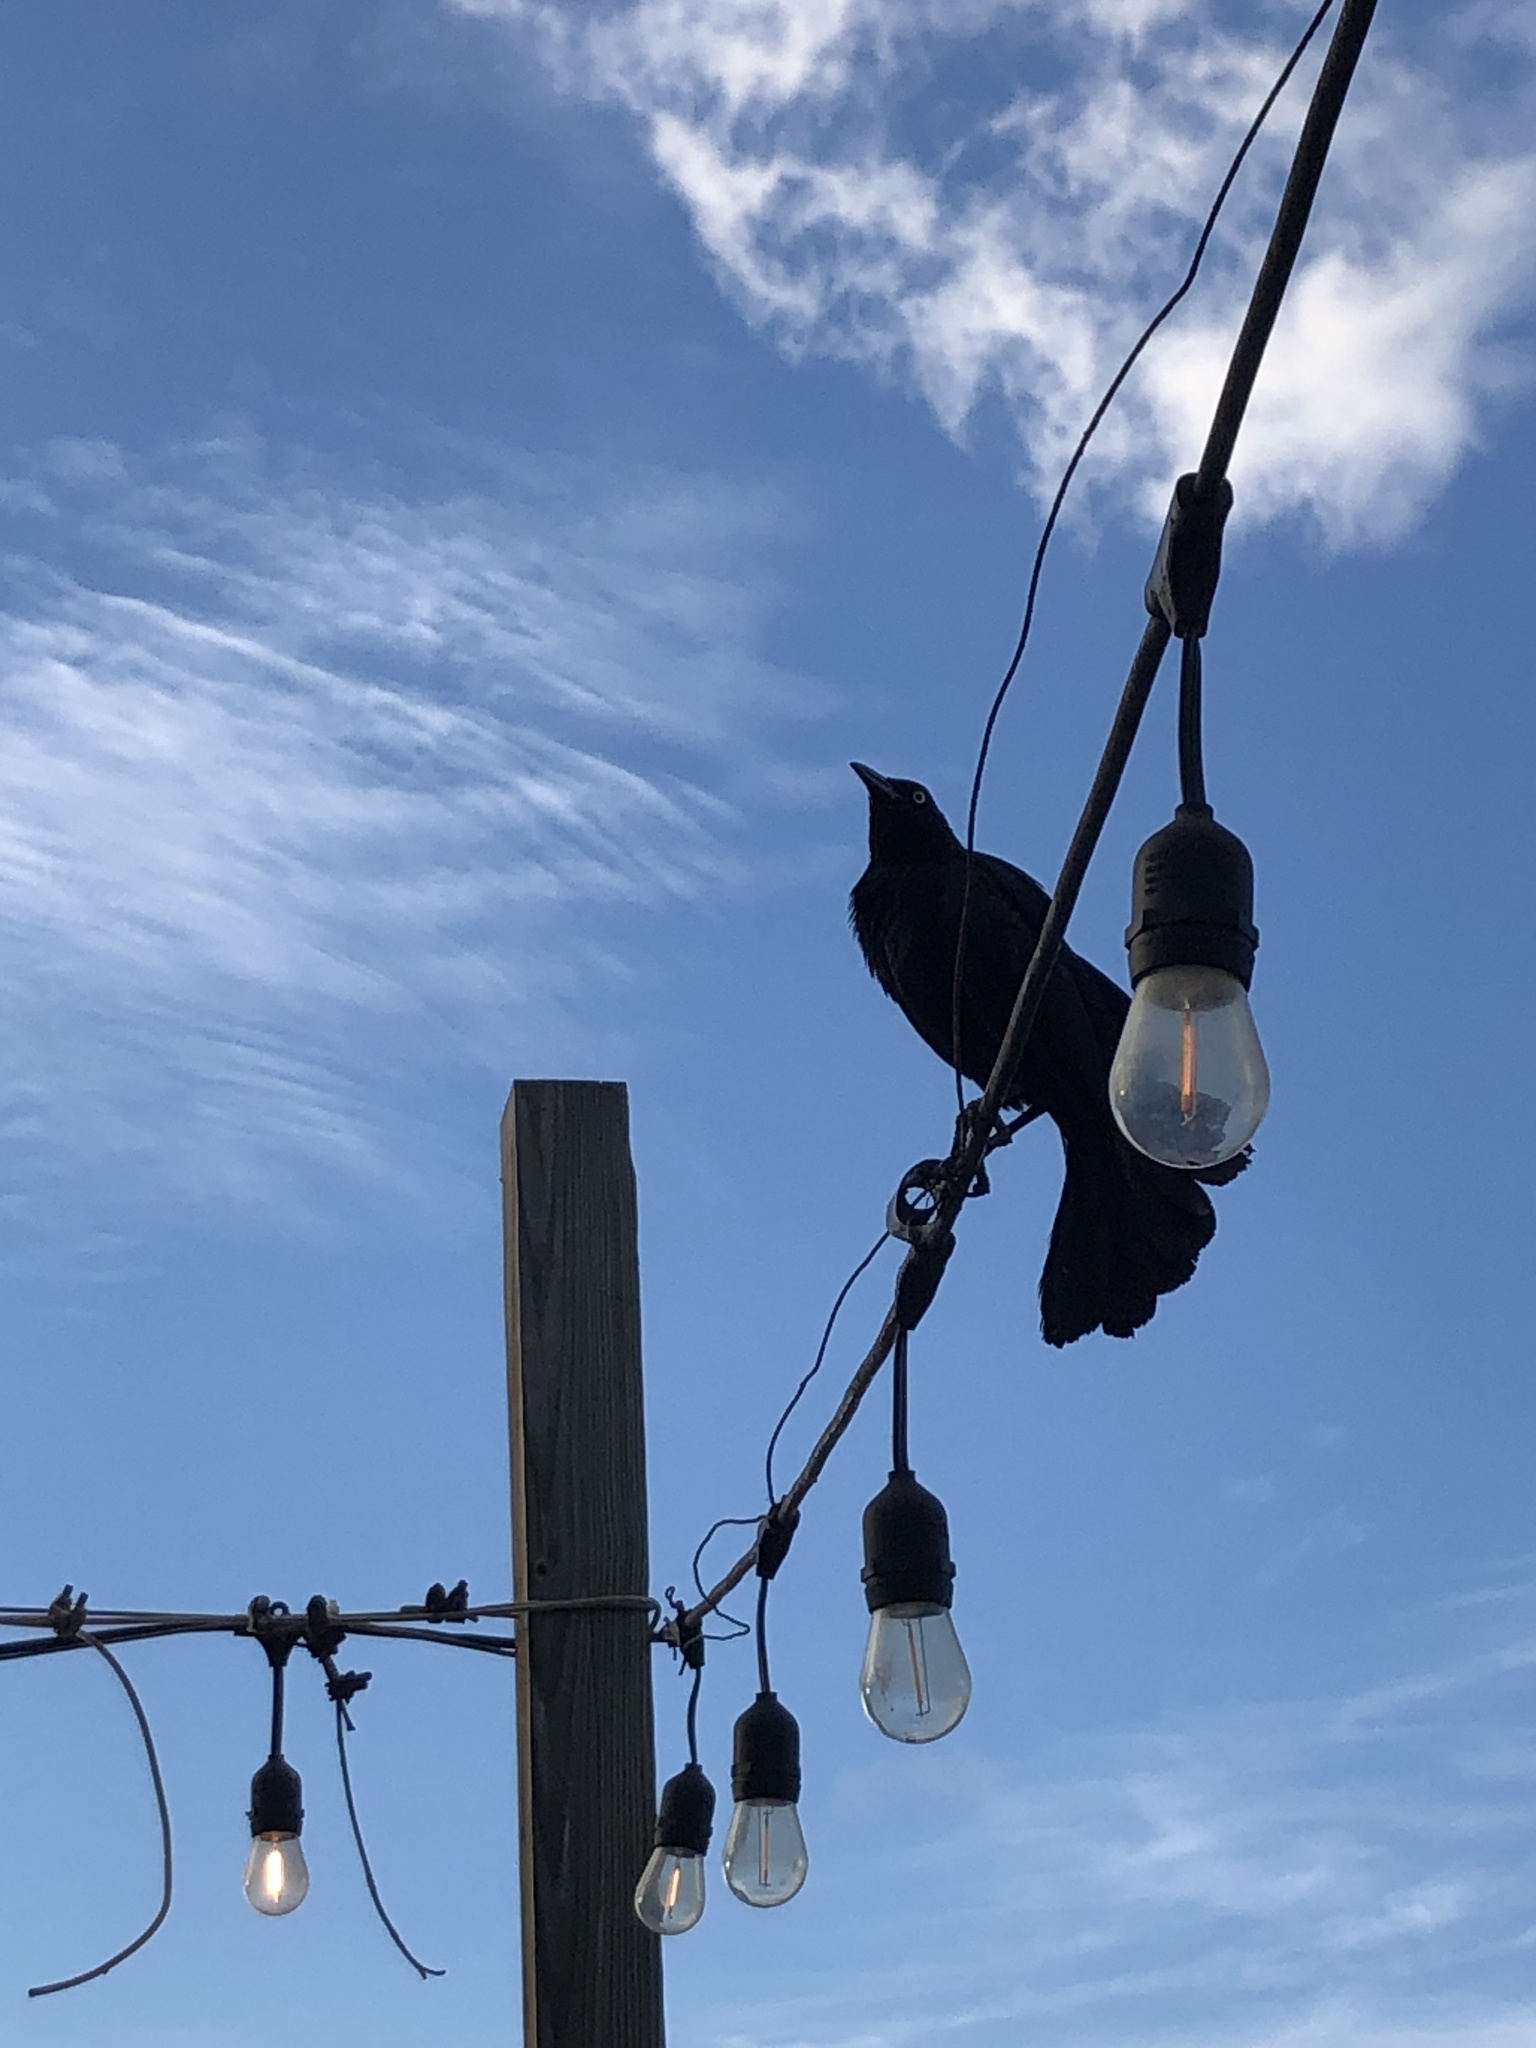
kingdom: Animalia
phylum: Chordata
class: Aves
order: Passeriformes
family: Icteridae
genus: Quiscalus
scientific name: Quiscalus niger
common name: Greater antillean grackle
